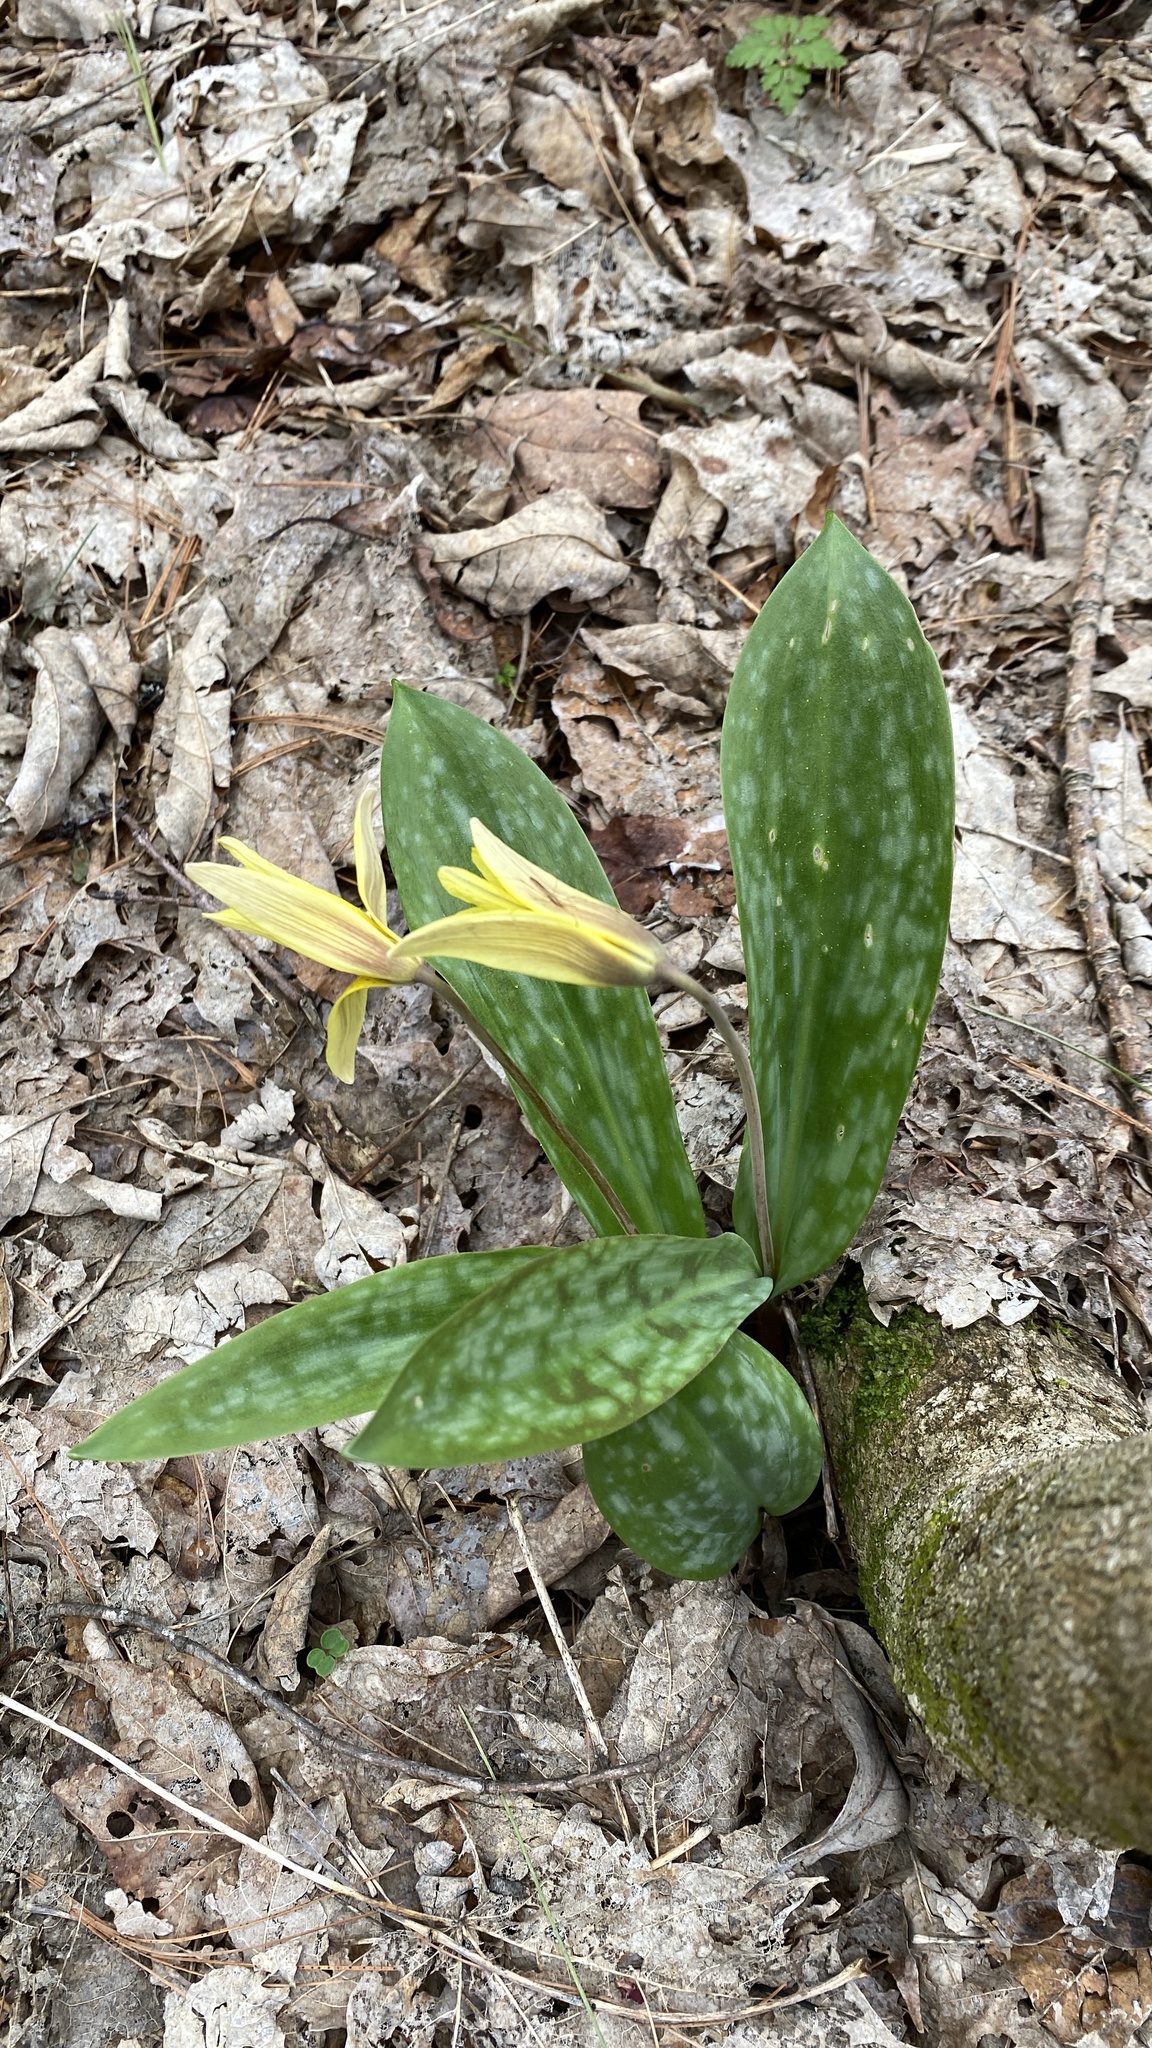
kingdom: Plantae
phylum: Tracheophyta
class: Liliopsida
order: Liliales
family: Liliaceae
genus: Erythronium
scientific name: Erythronium americanum
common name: Yellow adder's-tongue
